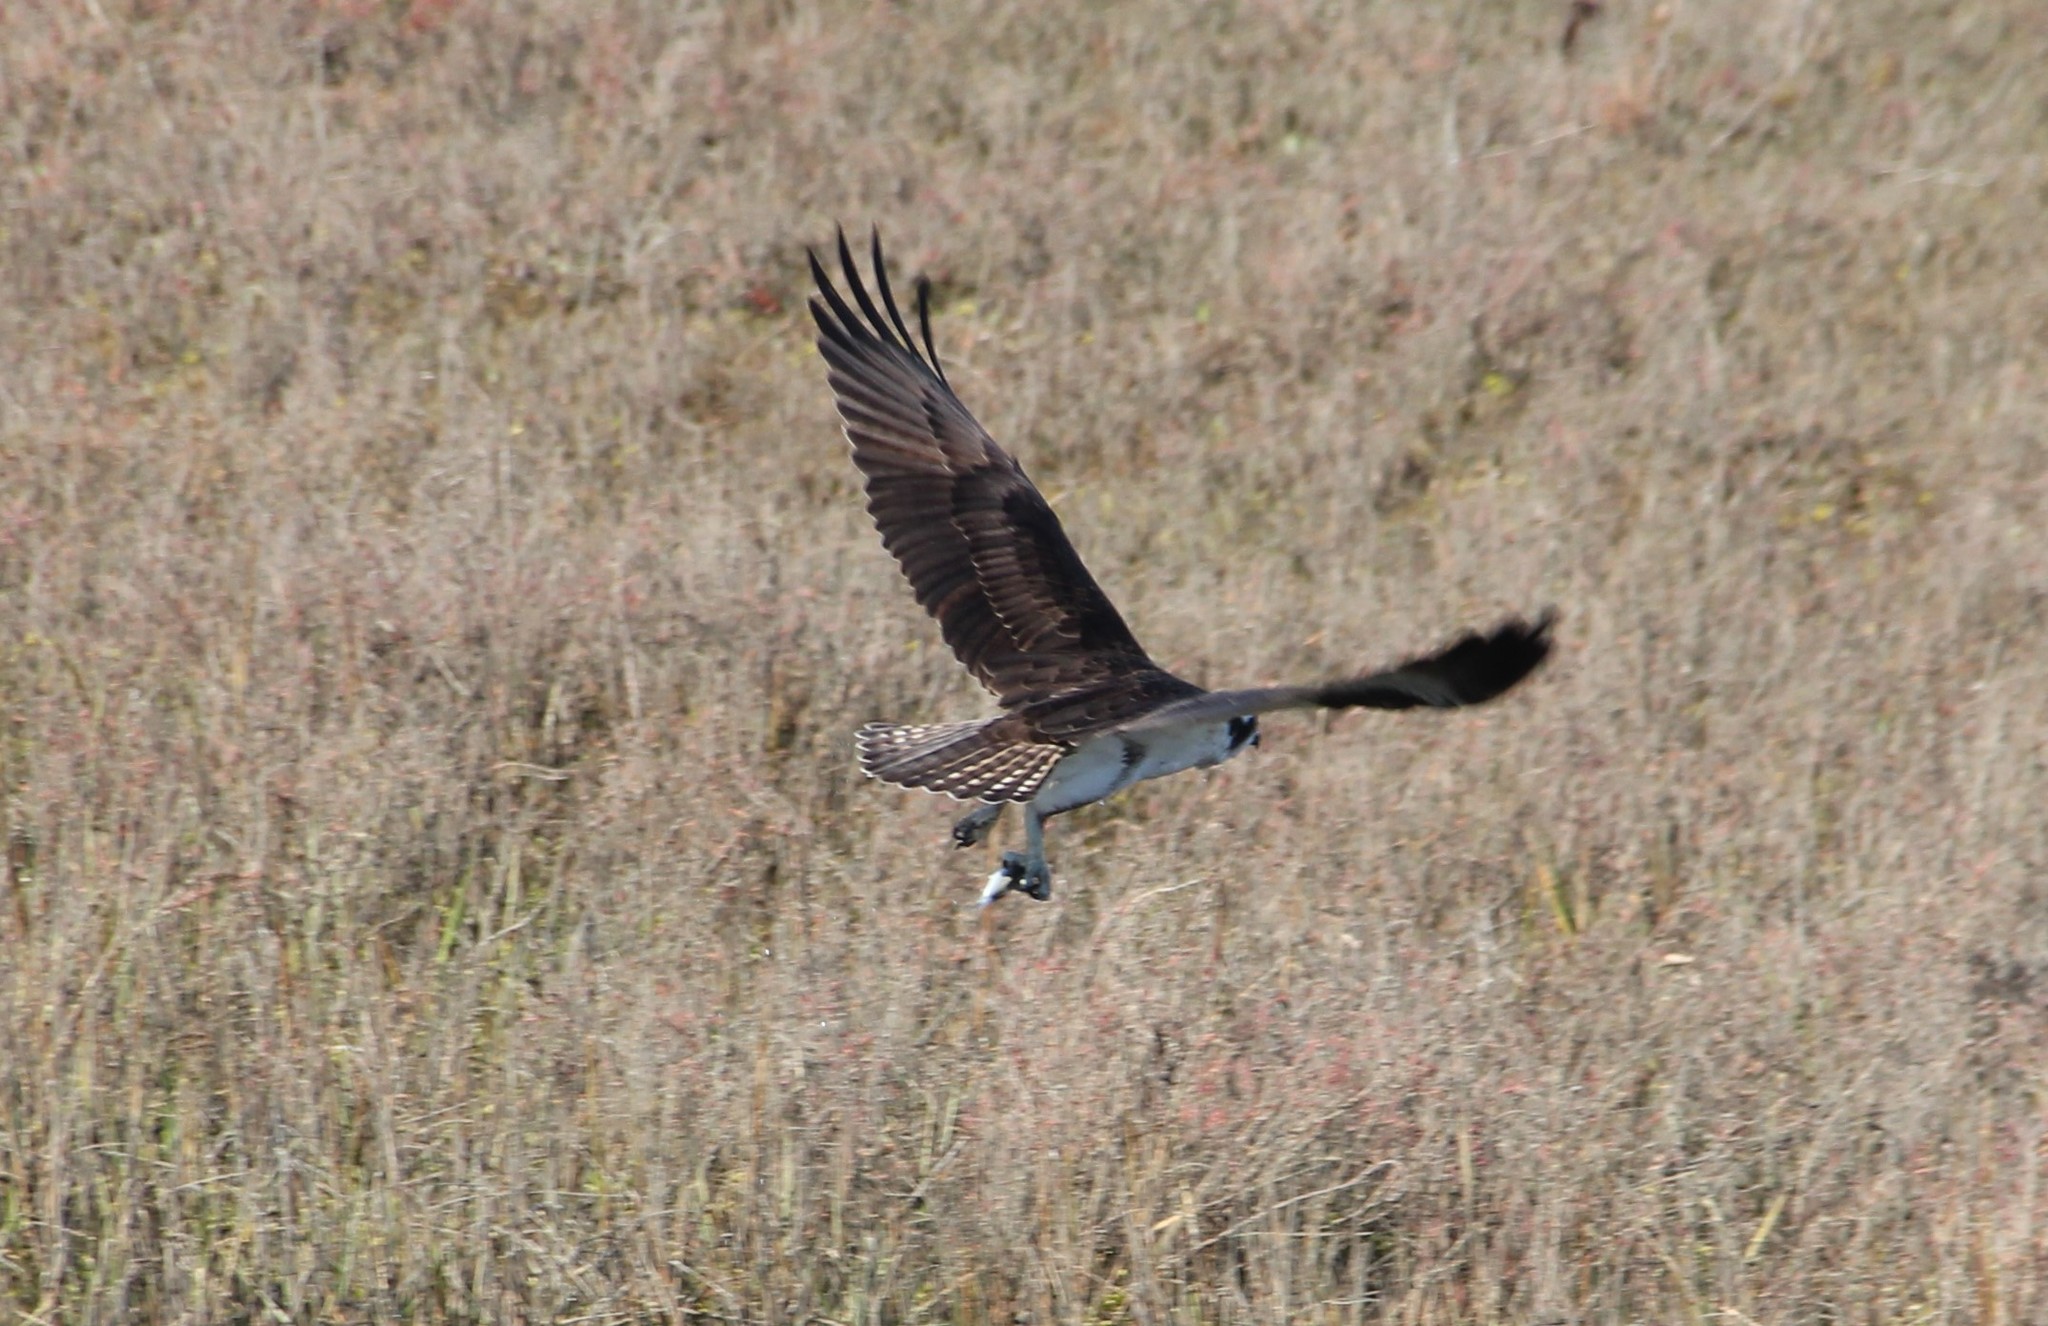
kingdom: Animalia
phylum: Chordata
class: Aves
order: Accipitriformes
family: Pandionidae
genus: Pandion
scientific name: Pandion haliaetus
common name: Osprey
